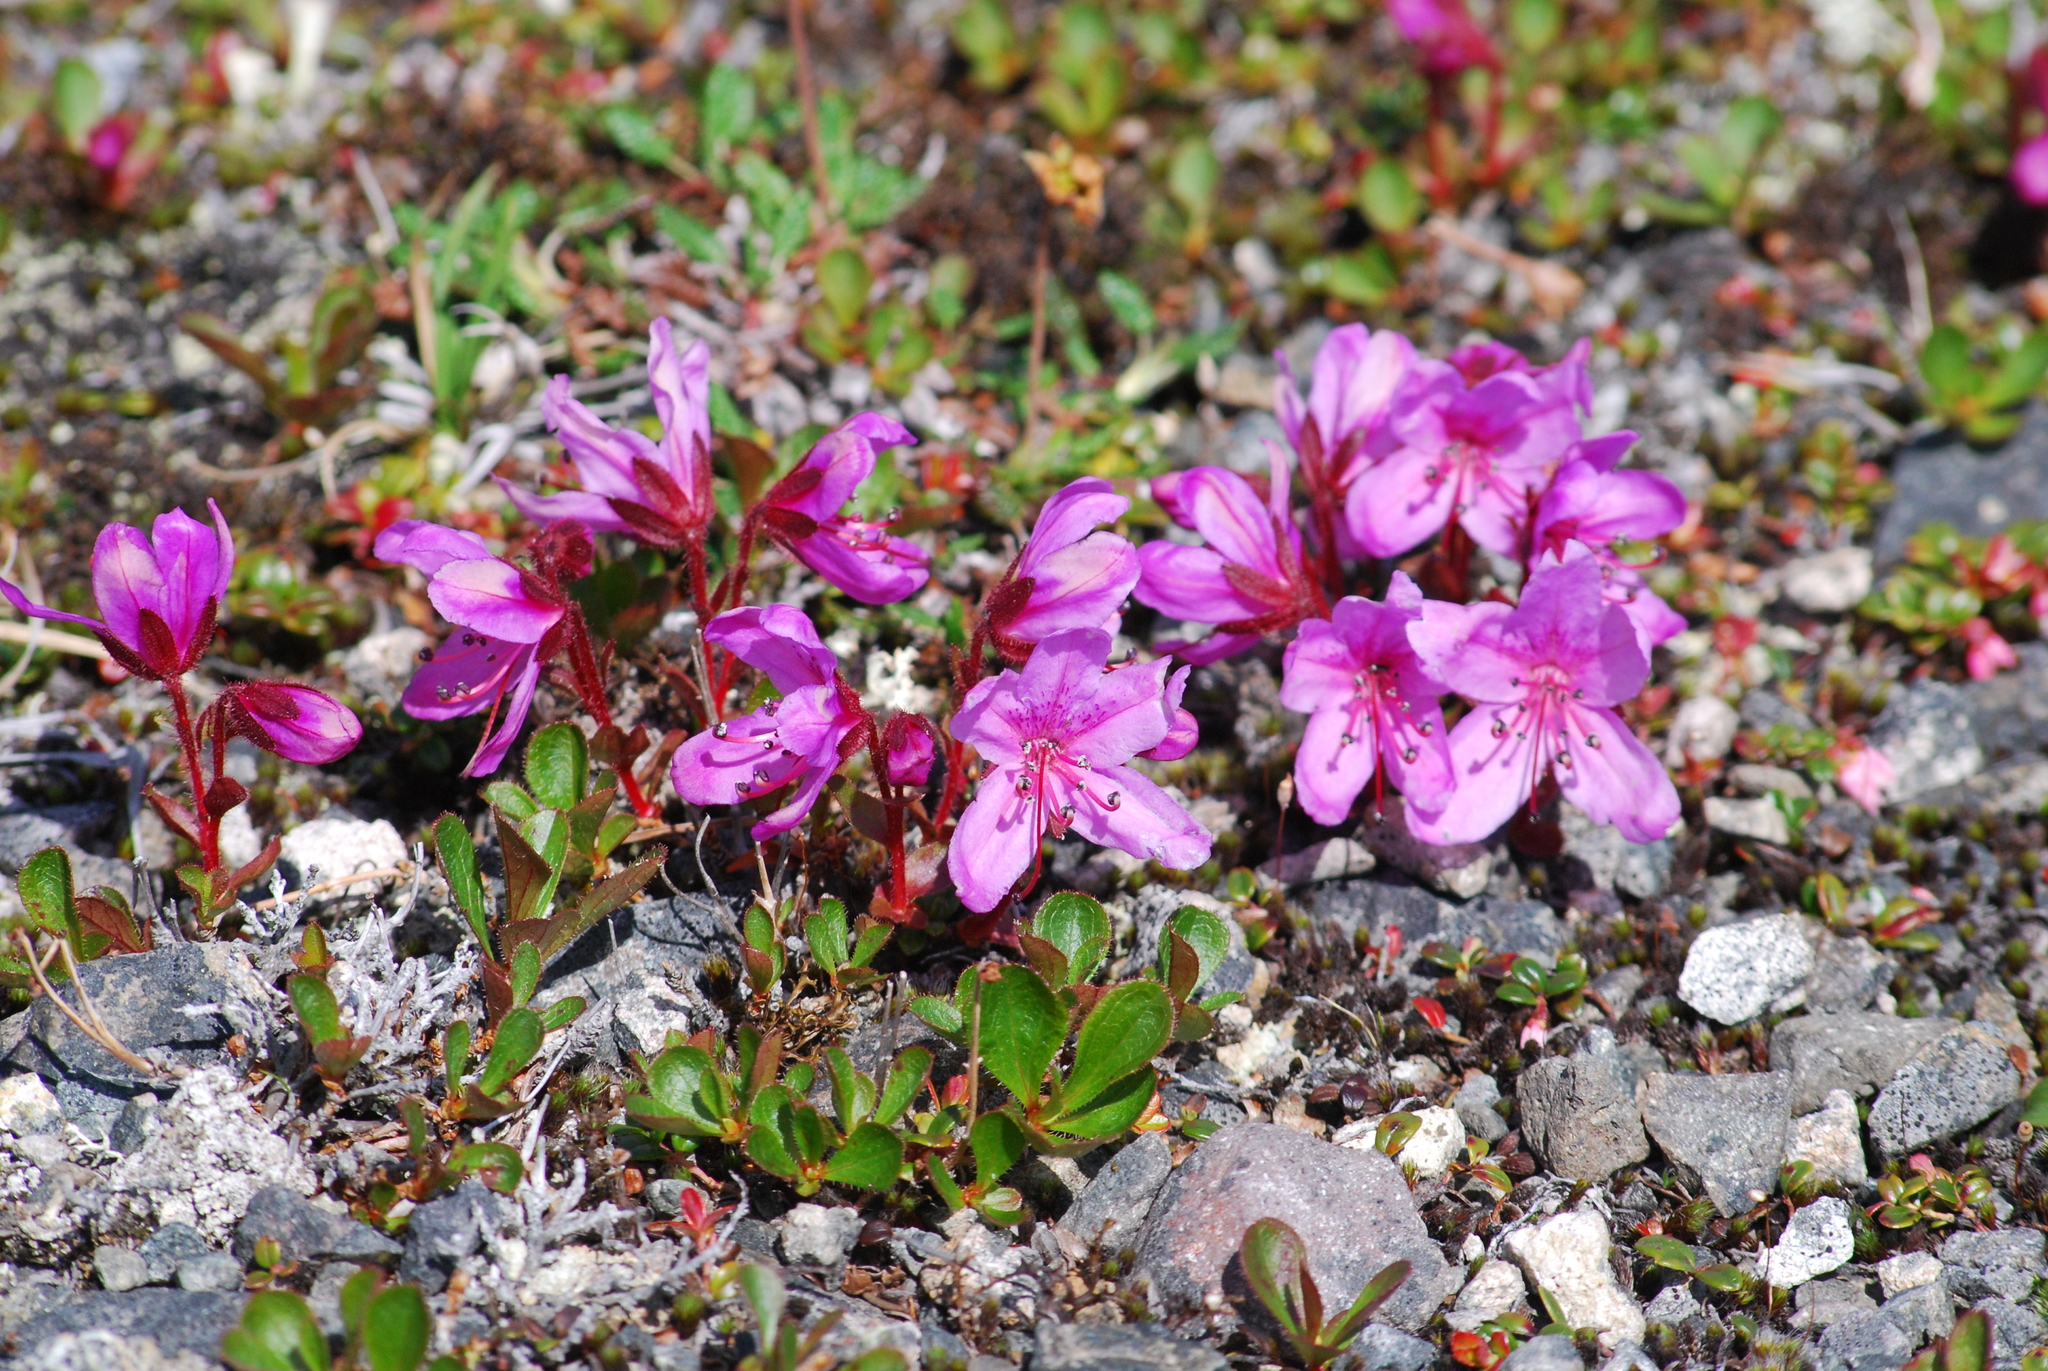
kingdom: Plantae
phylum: Tracheophyta
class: Magnoliopsida
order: Ericales
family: Ericaceae
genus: Rhododendron
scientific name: Rhododendron camtschaticum
